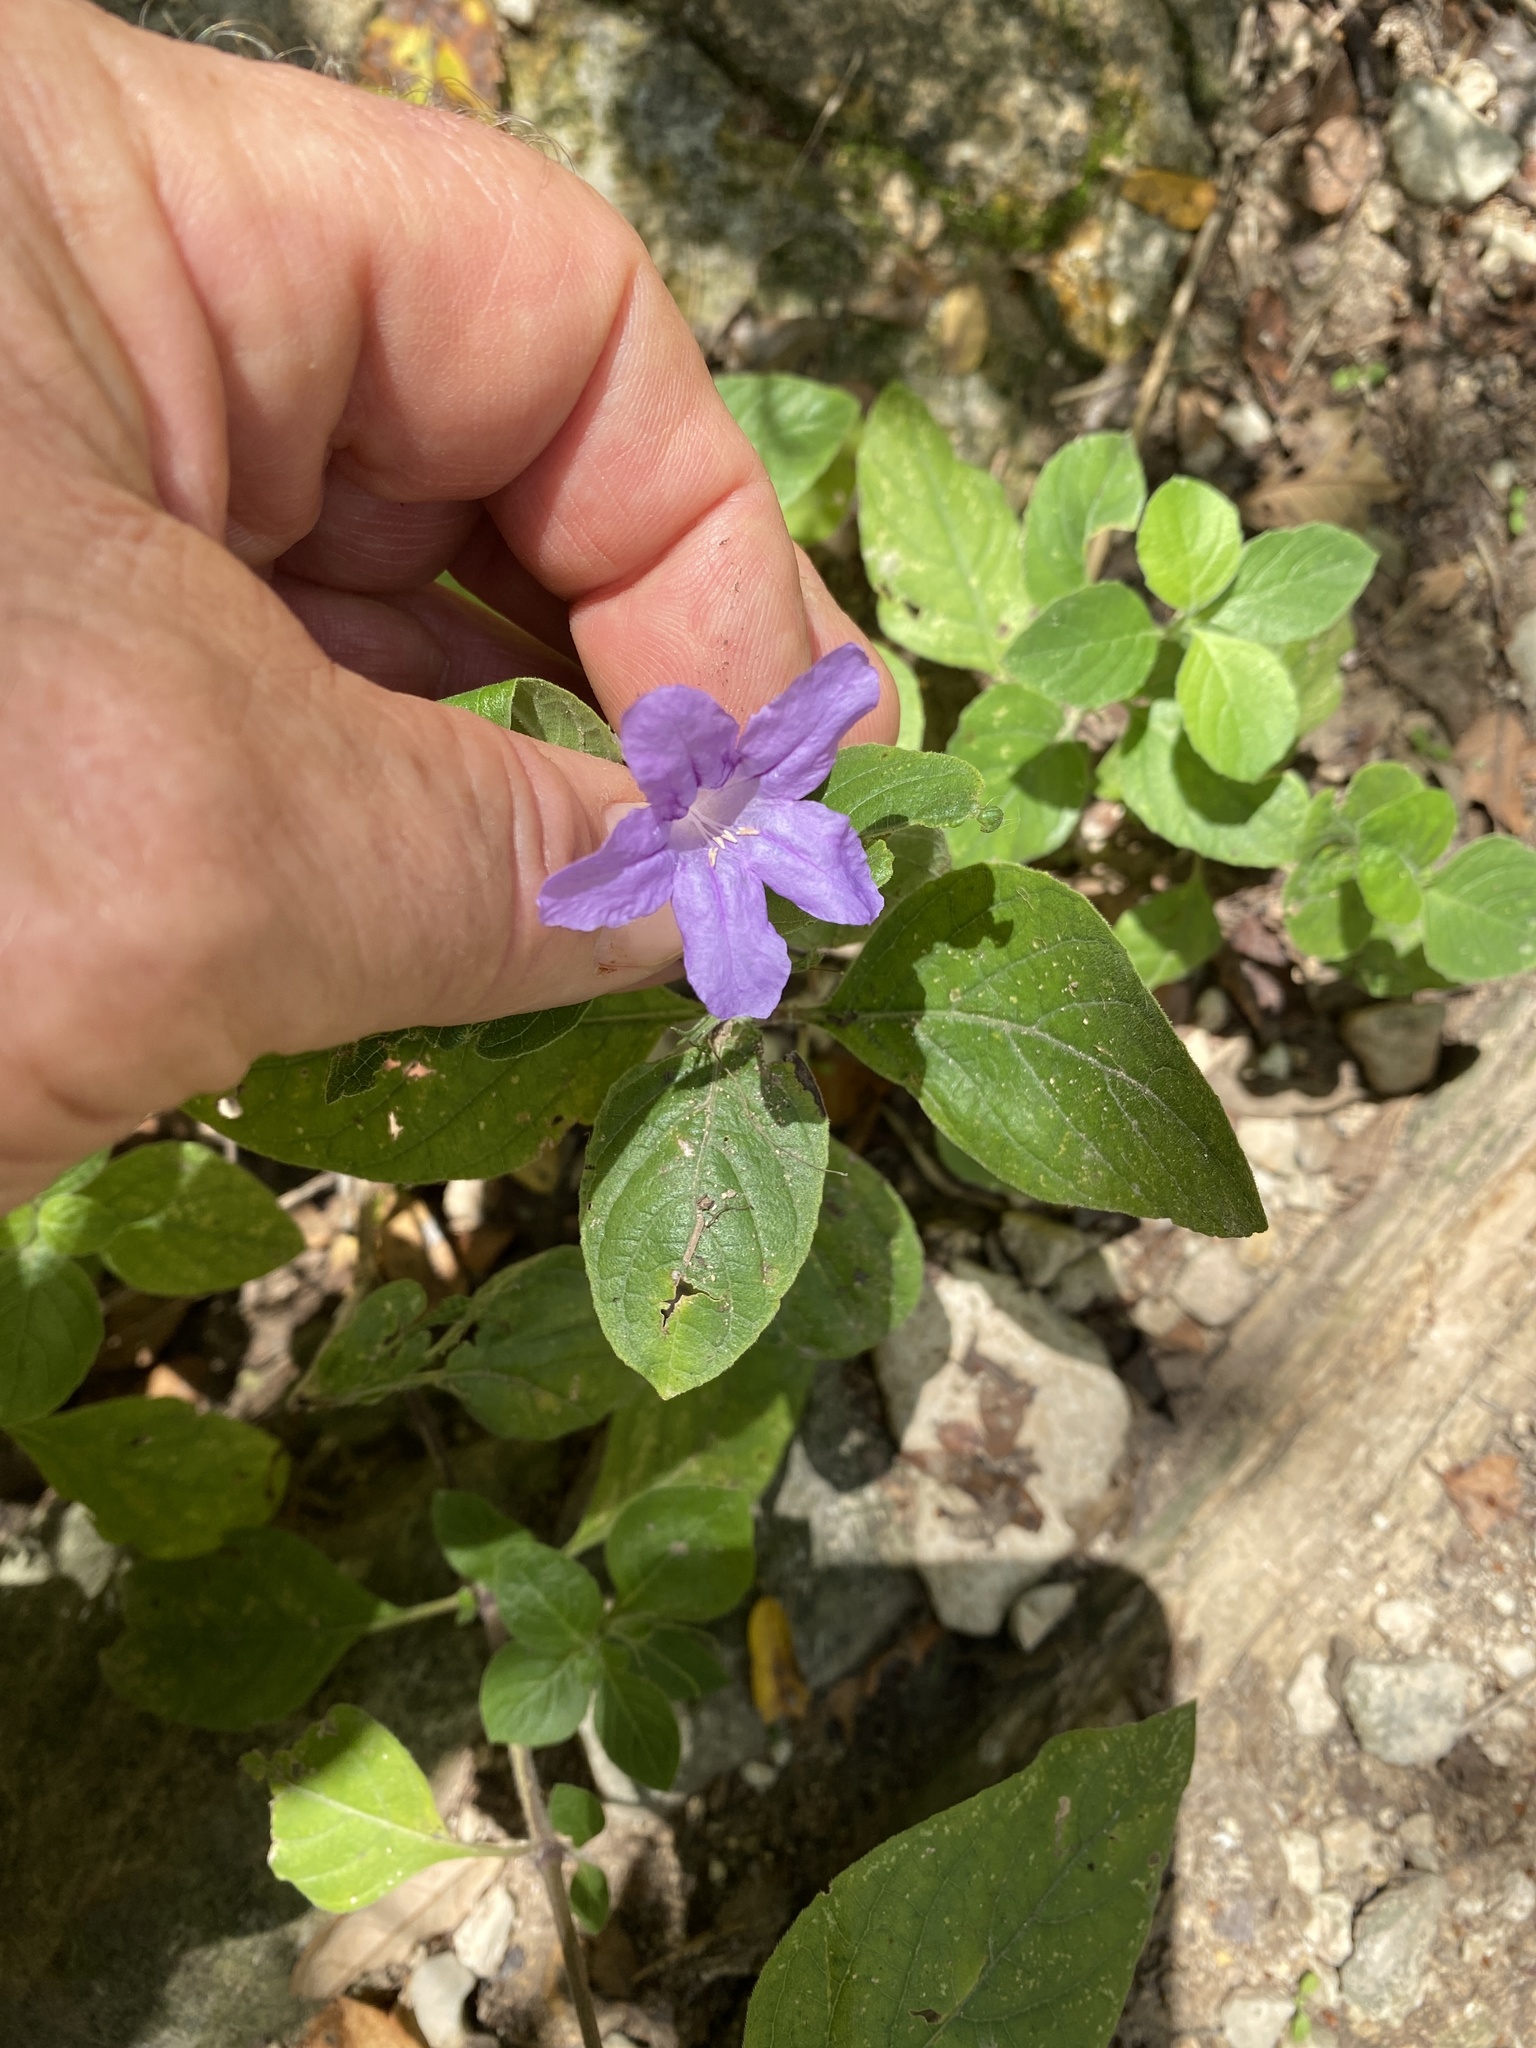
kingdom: Plantae
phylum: Tracheophyta
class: Magnoliopsida
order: Lamiales
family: Acanthaceae
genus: Ruellia
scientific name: Ruellia drummondiana
